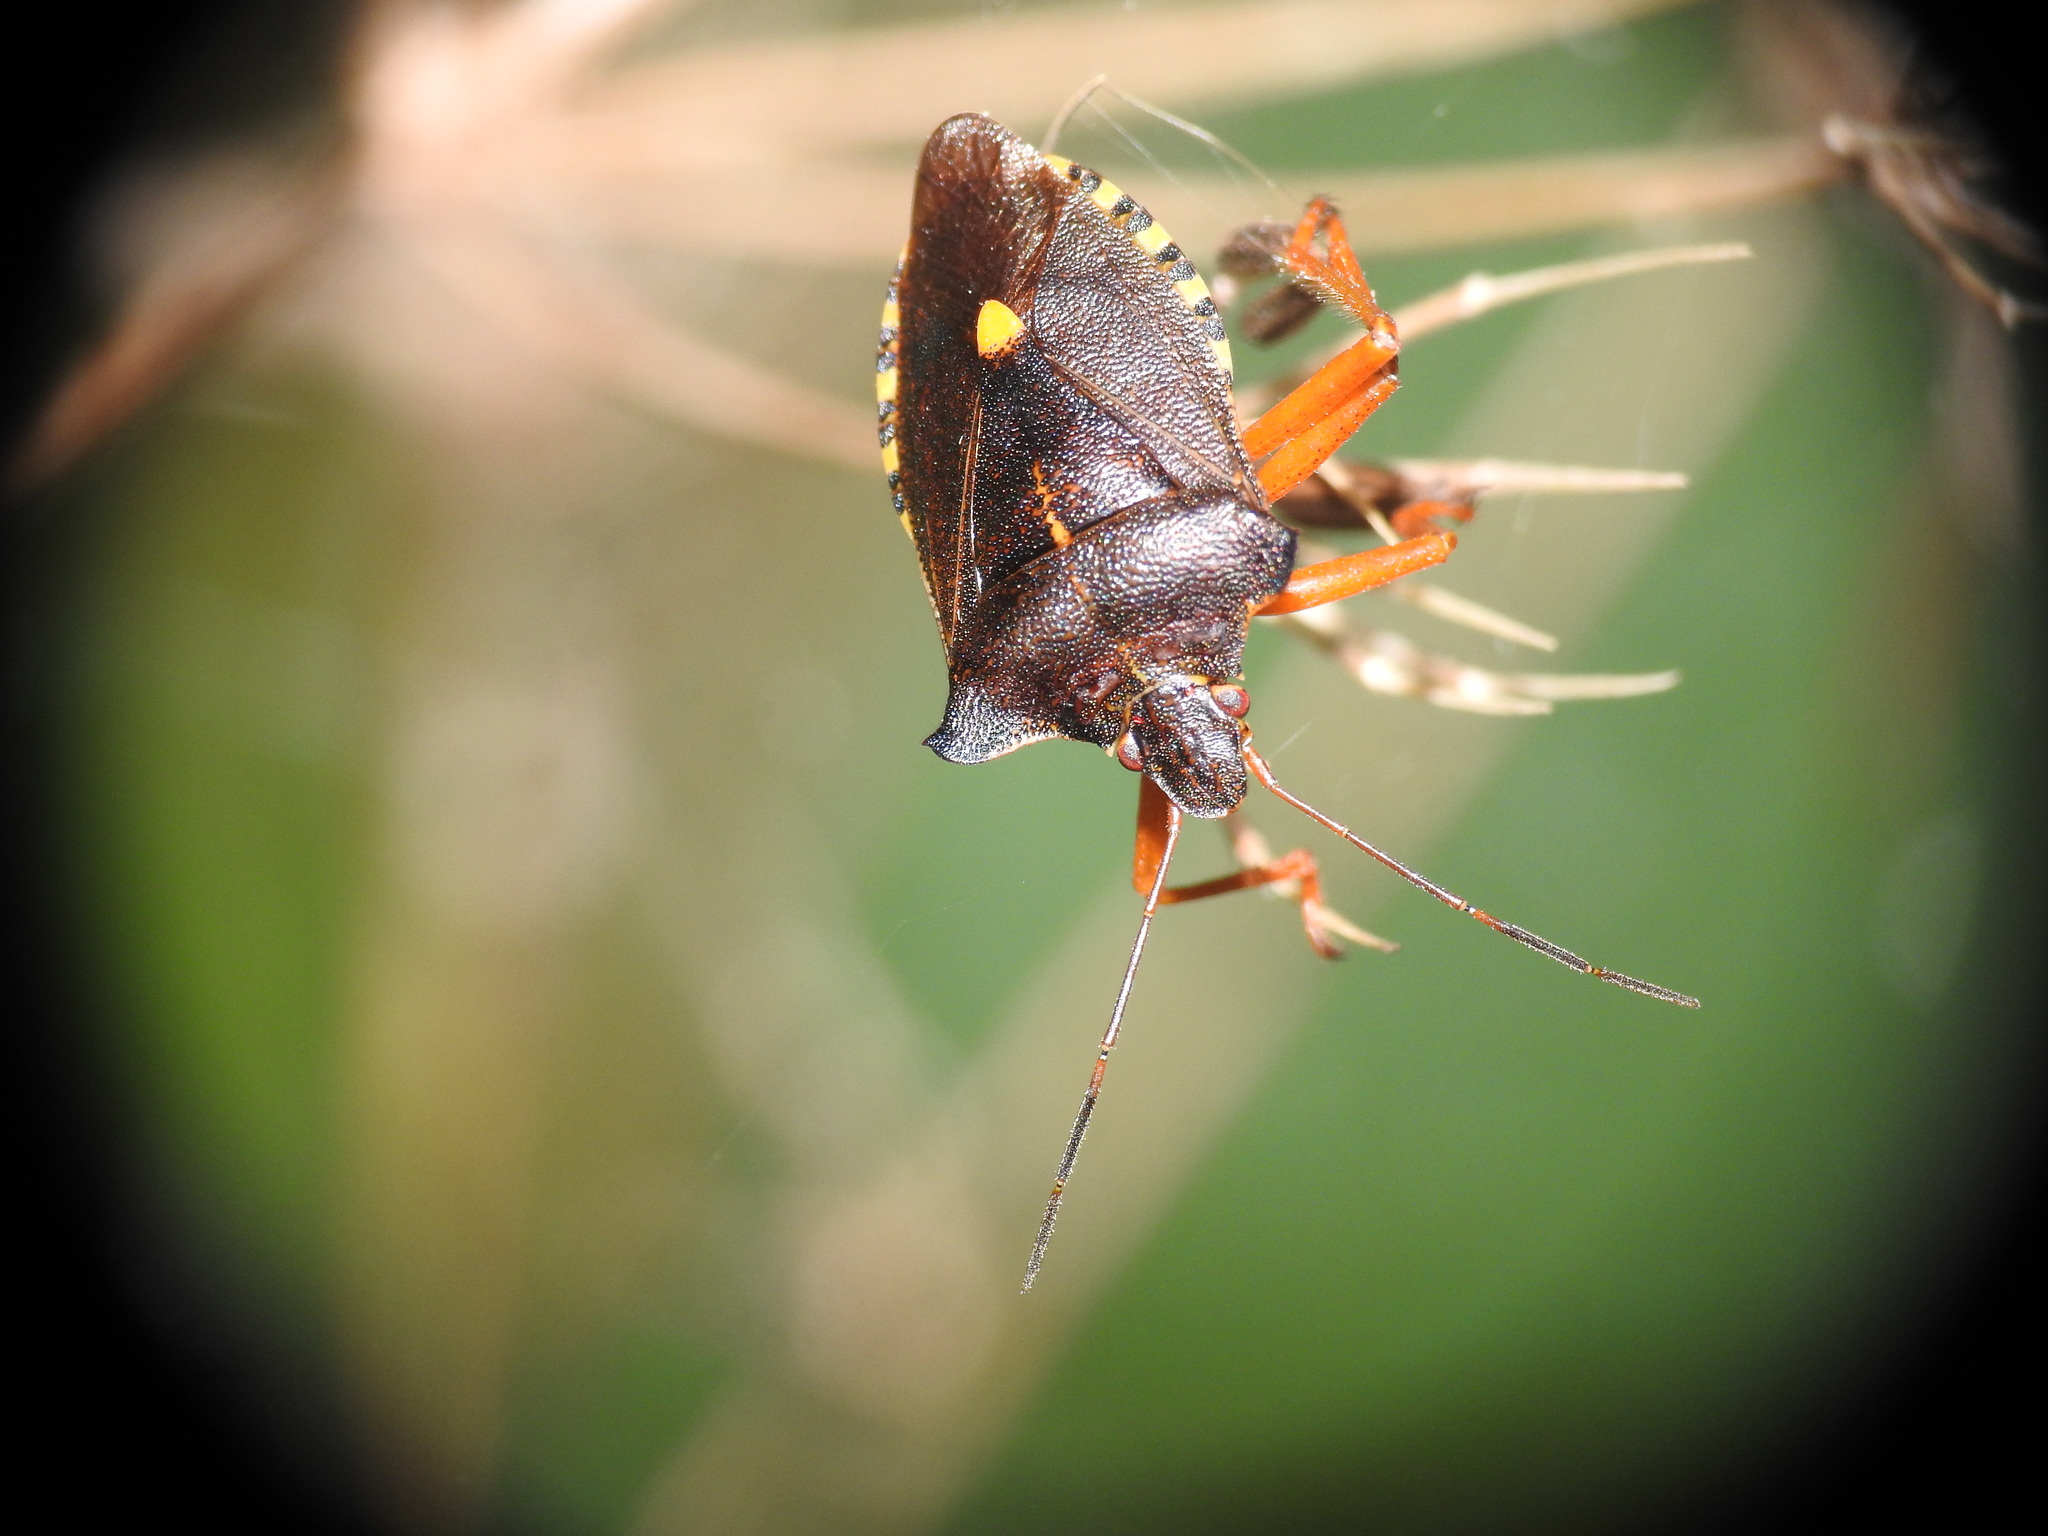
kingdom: Animalia
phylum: Arthropoda
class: Insecta
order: Hemiptera
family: Pentatomidae
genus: Pentatoma
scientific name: Pentatoma rufipes
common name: Forest bug
